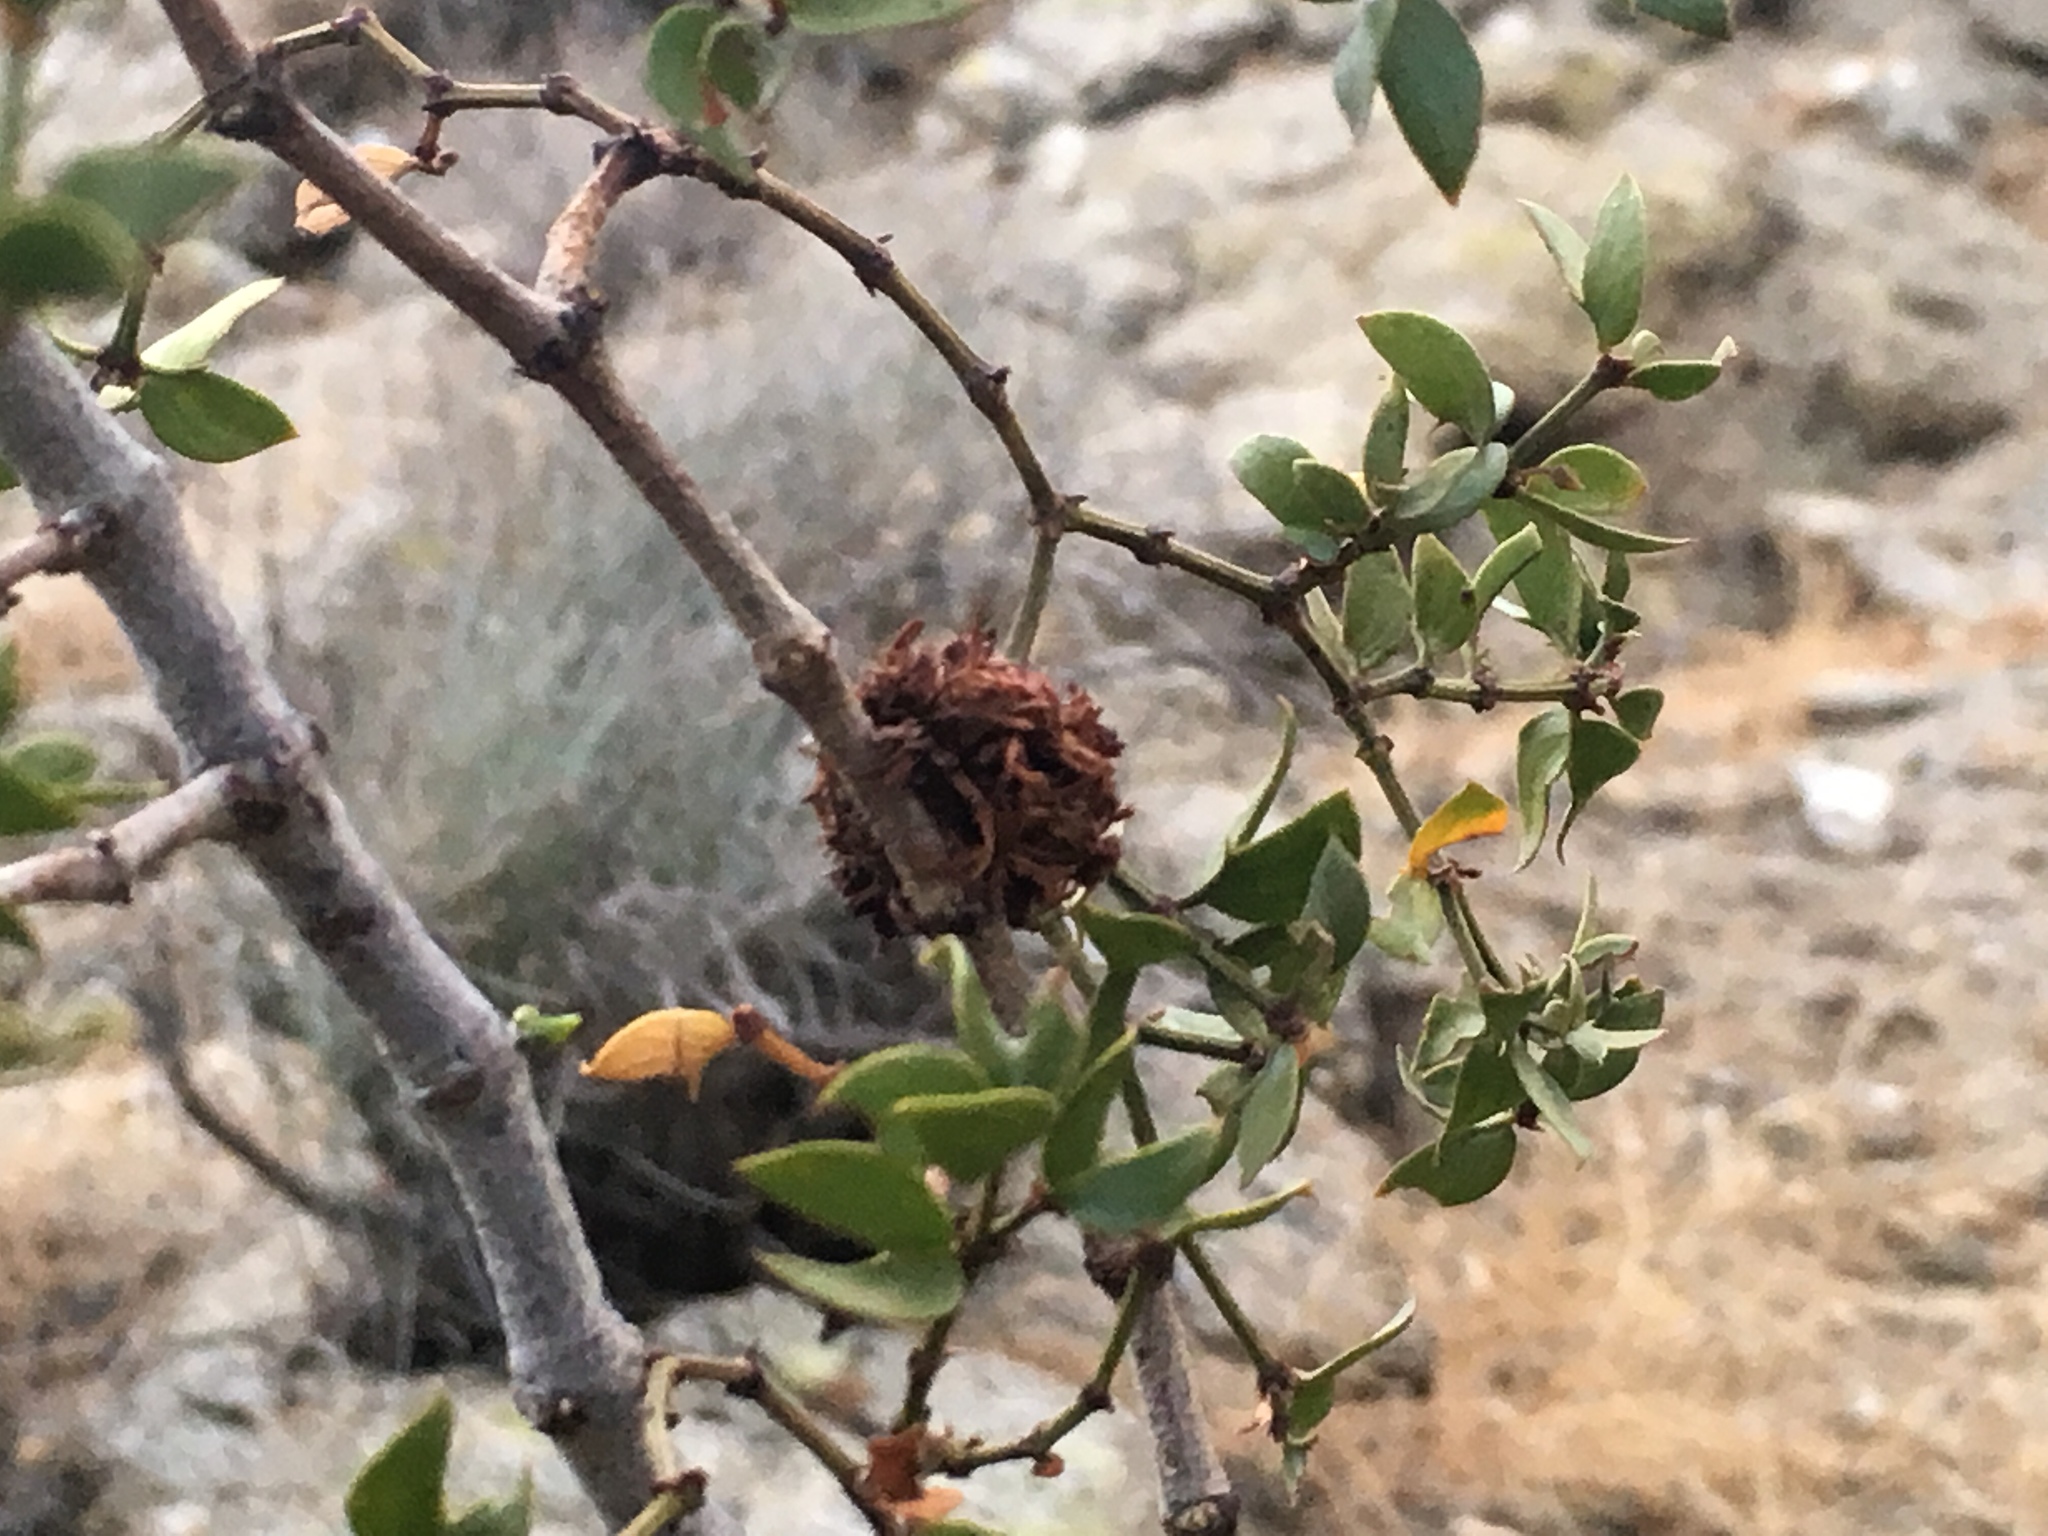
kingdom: Animalia
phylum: Arthropoda
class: Insecta
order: Diptera
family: Cecidomyiidae
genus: Asphondylia
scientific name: Asphondylia auripila
